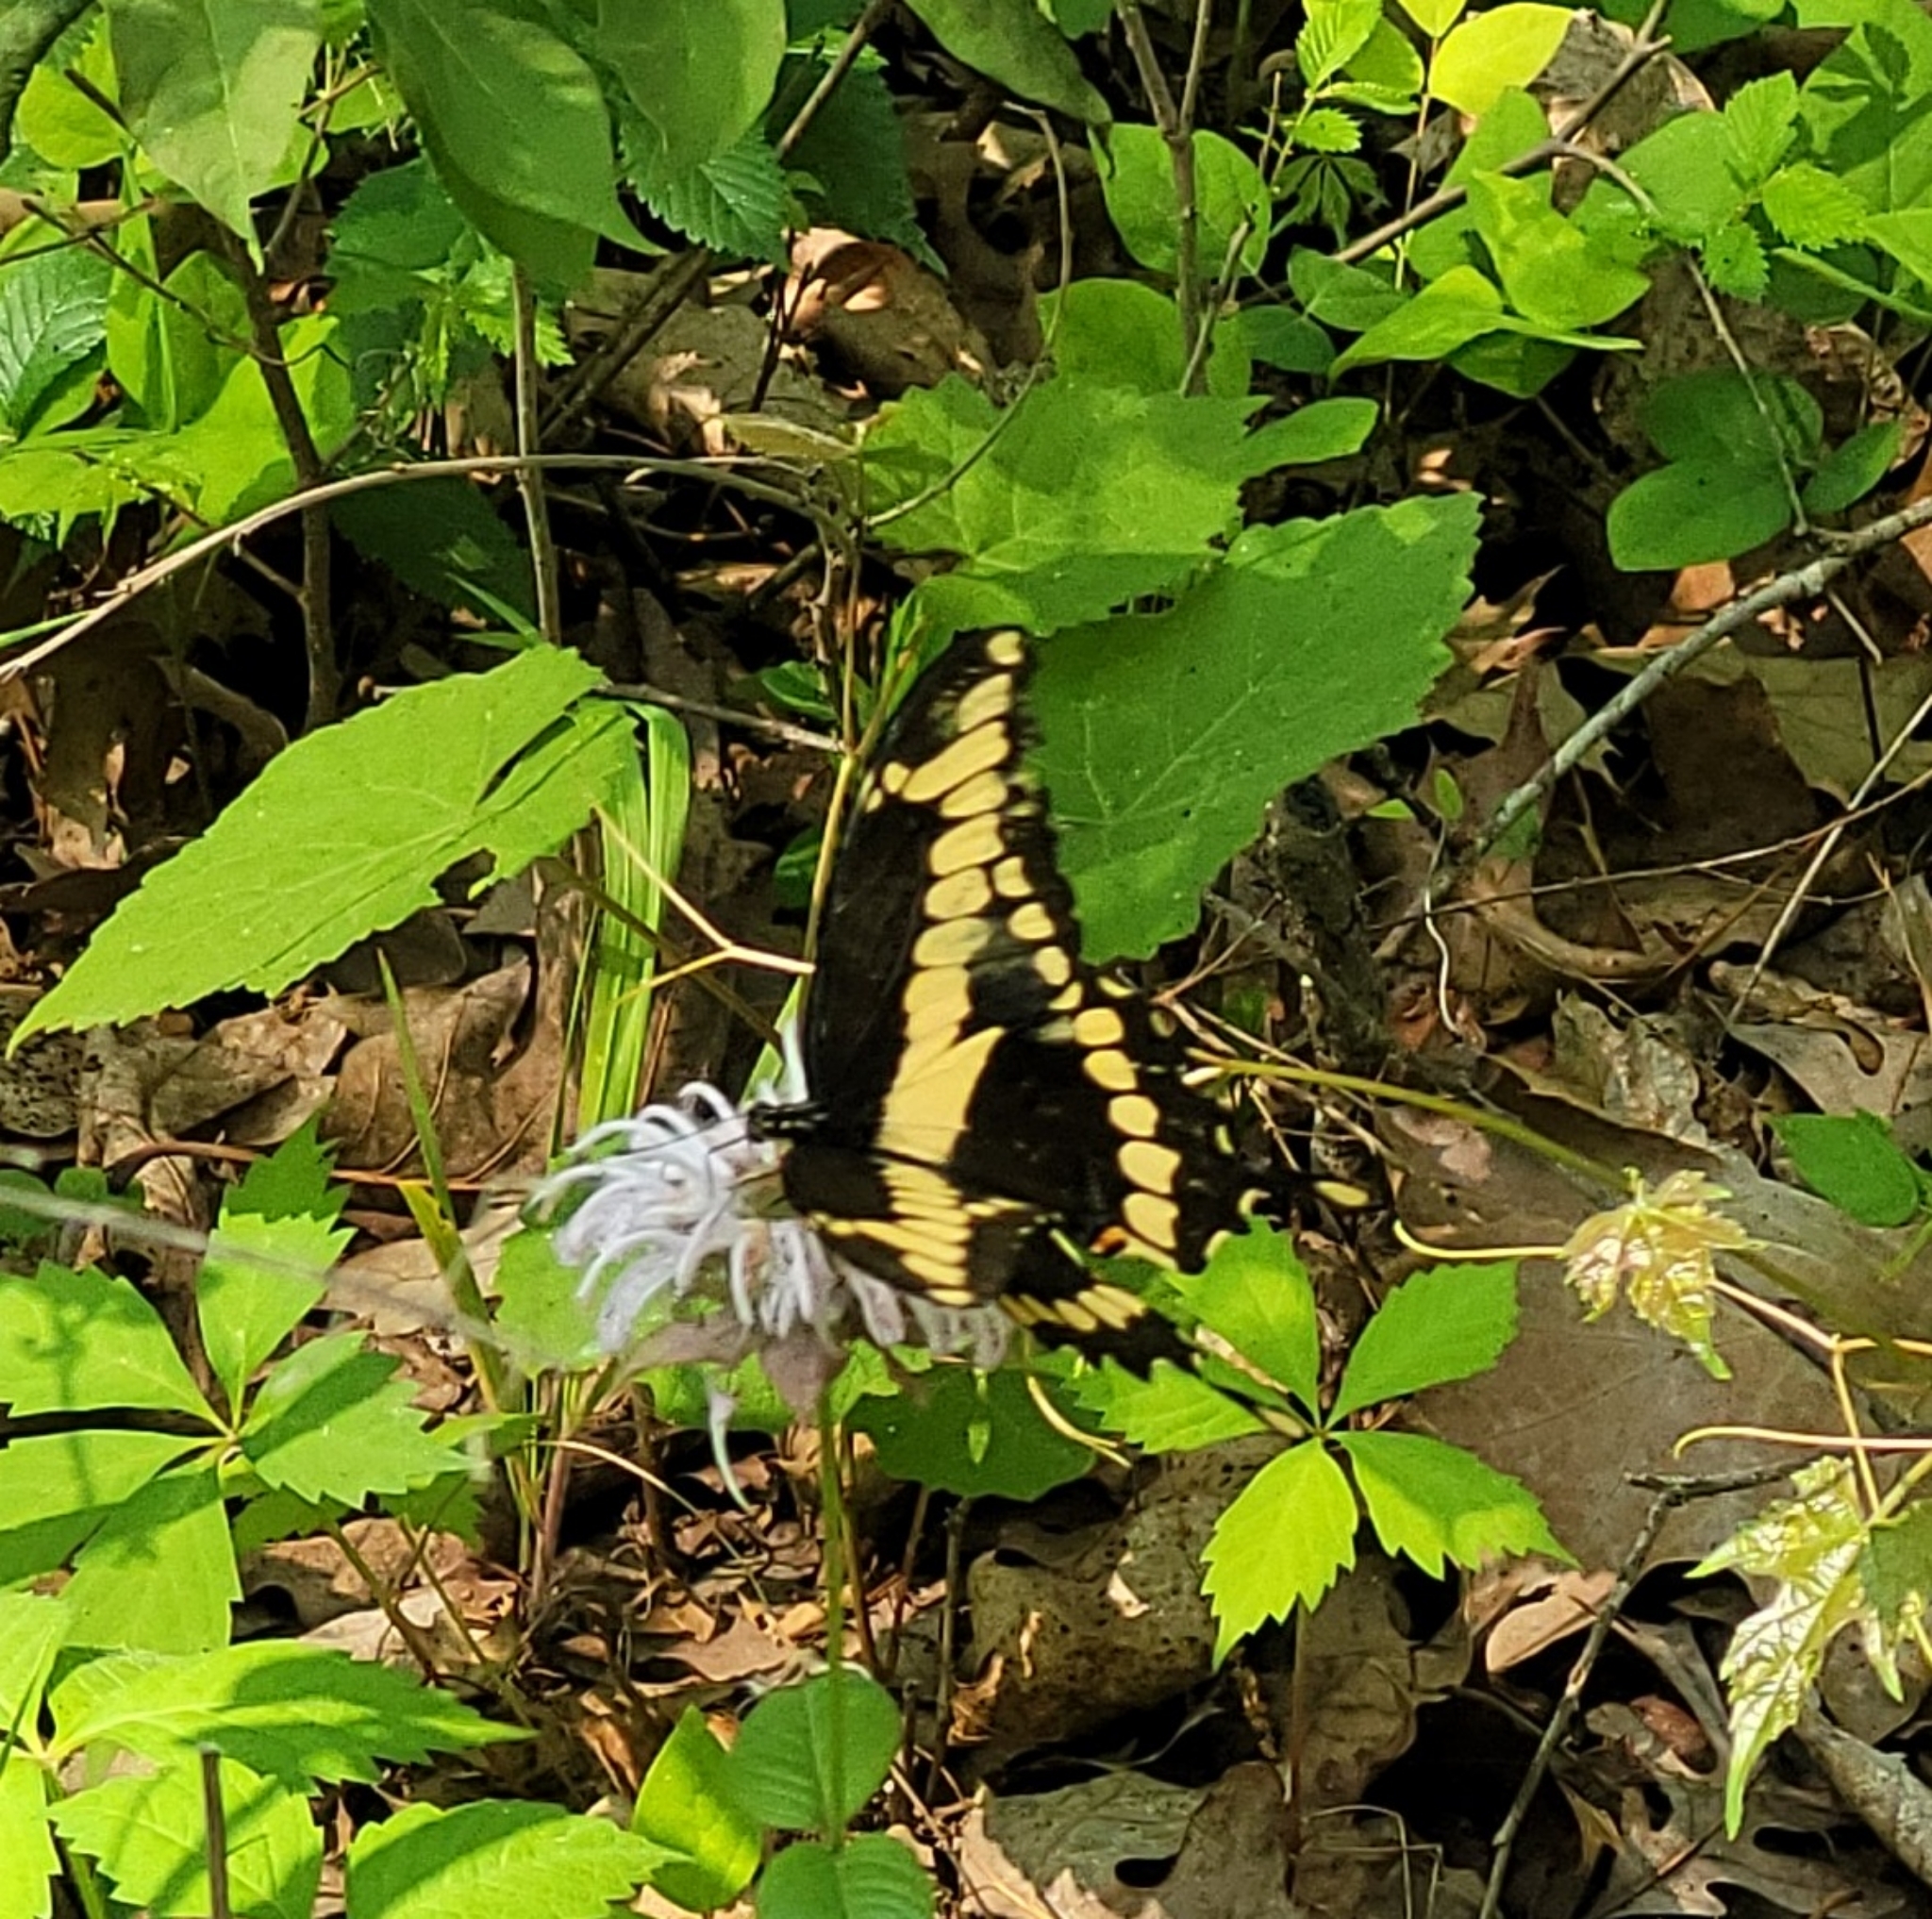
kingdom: Animalia
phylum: Arthropoda
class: Insecta
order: Lepidoptera
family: Papilionidae
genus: Papilio
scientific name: Papilio cresphontes
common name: Giant swallowtail
